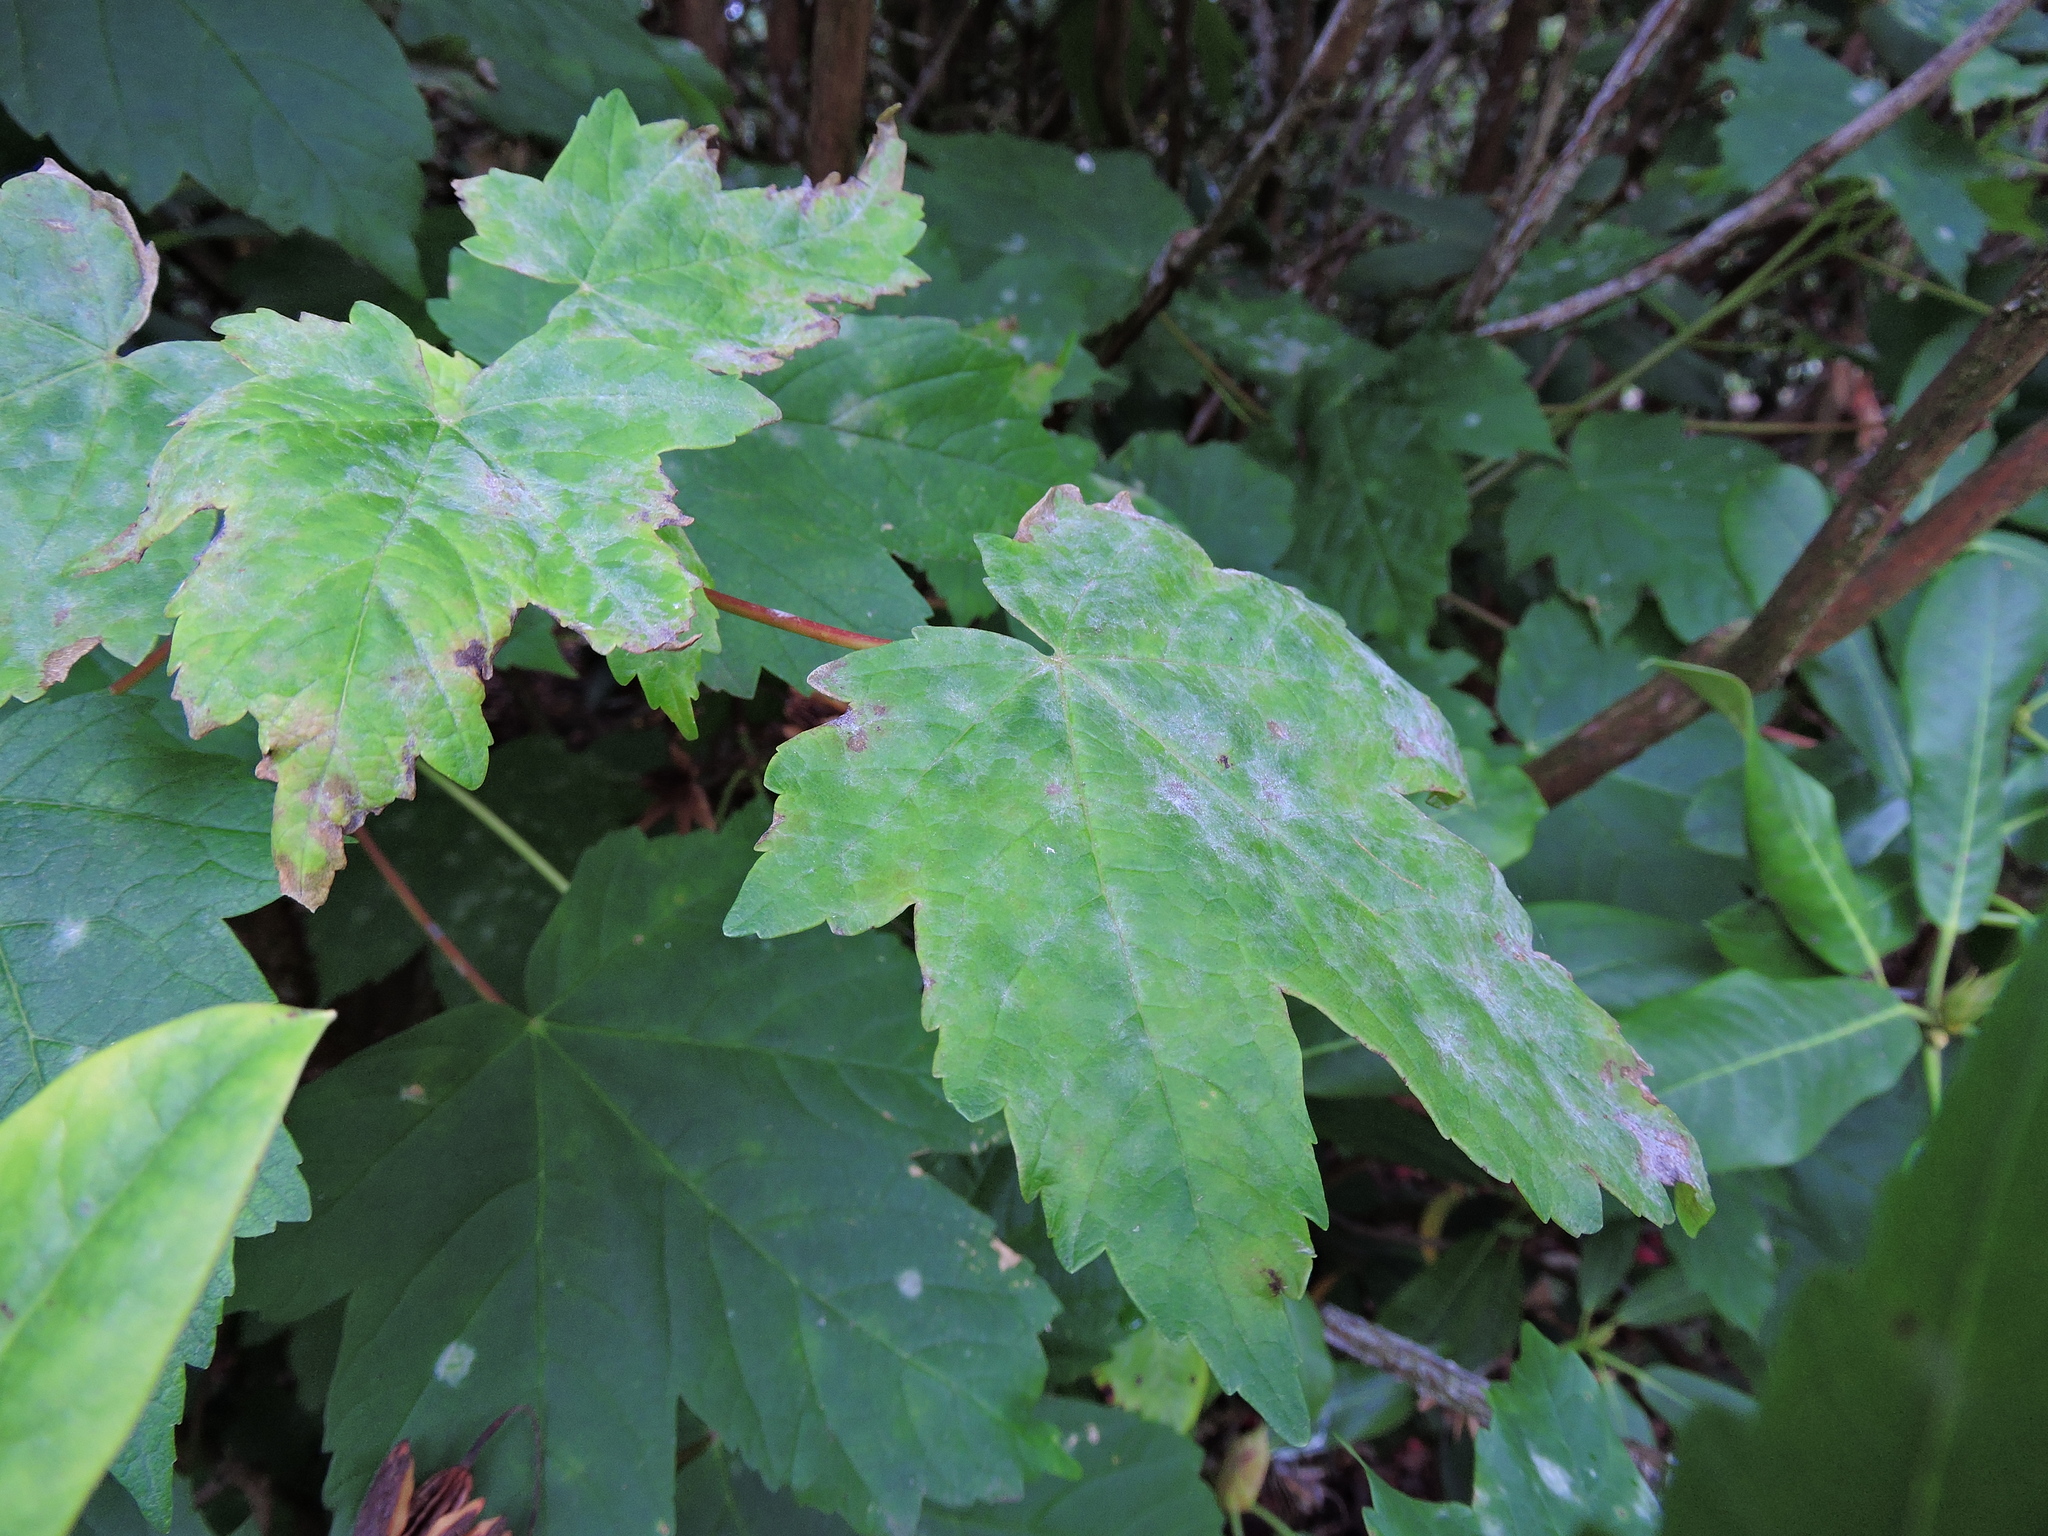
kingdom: Fungi
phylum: Ascomycota
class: Leotiomycetes
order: Helotiales
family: Erysiphaceae
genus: Sawadaea
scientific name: Sawadaea bicornis
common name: Maple mildew
